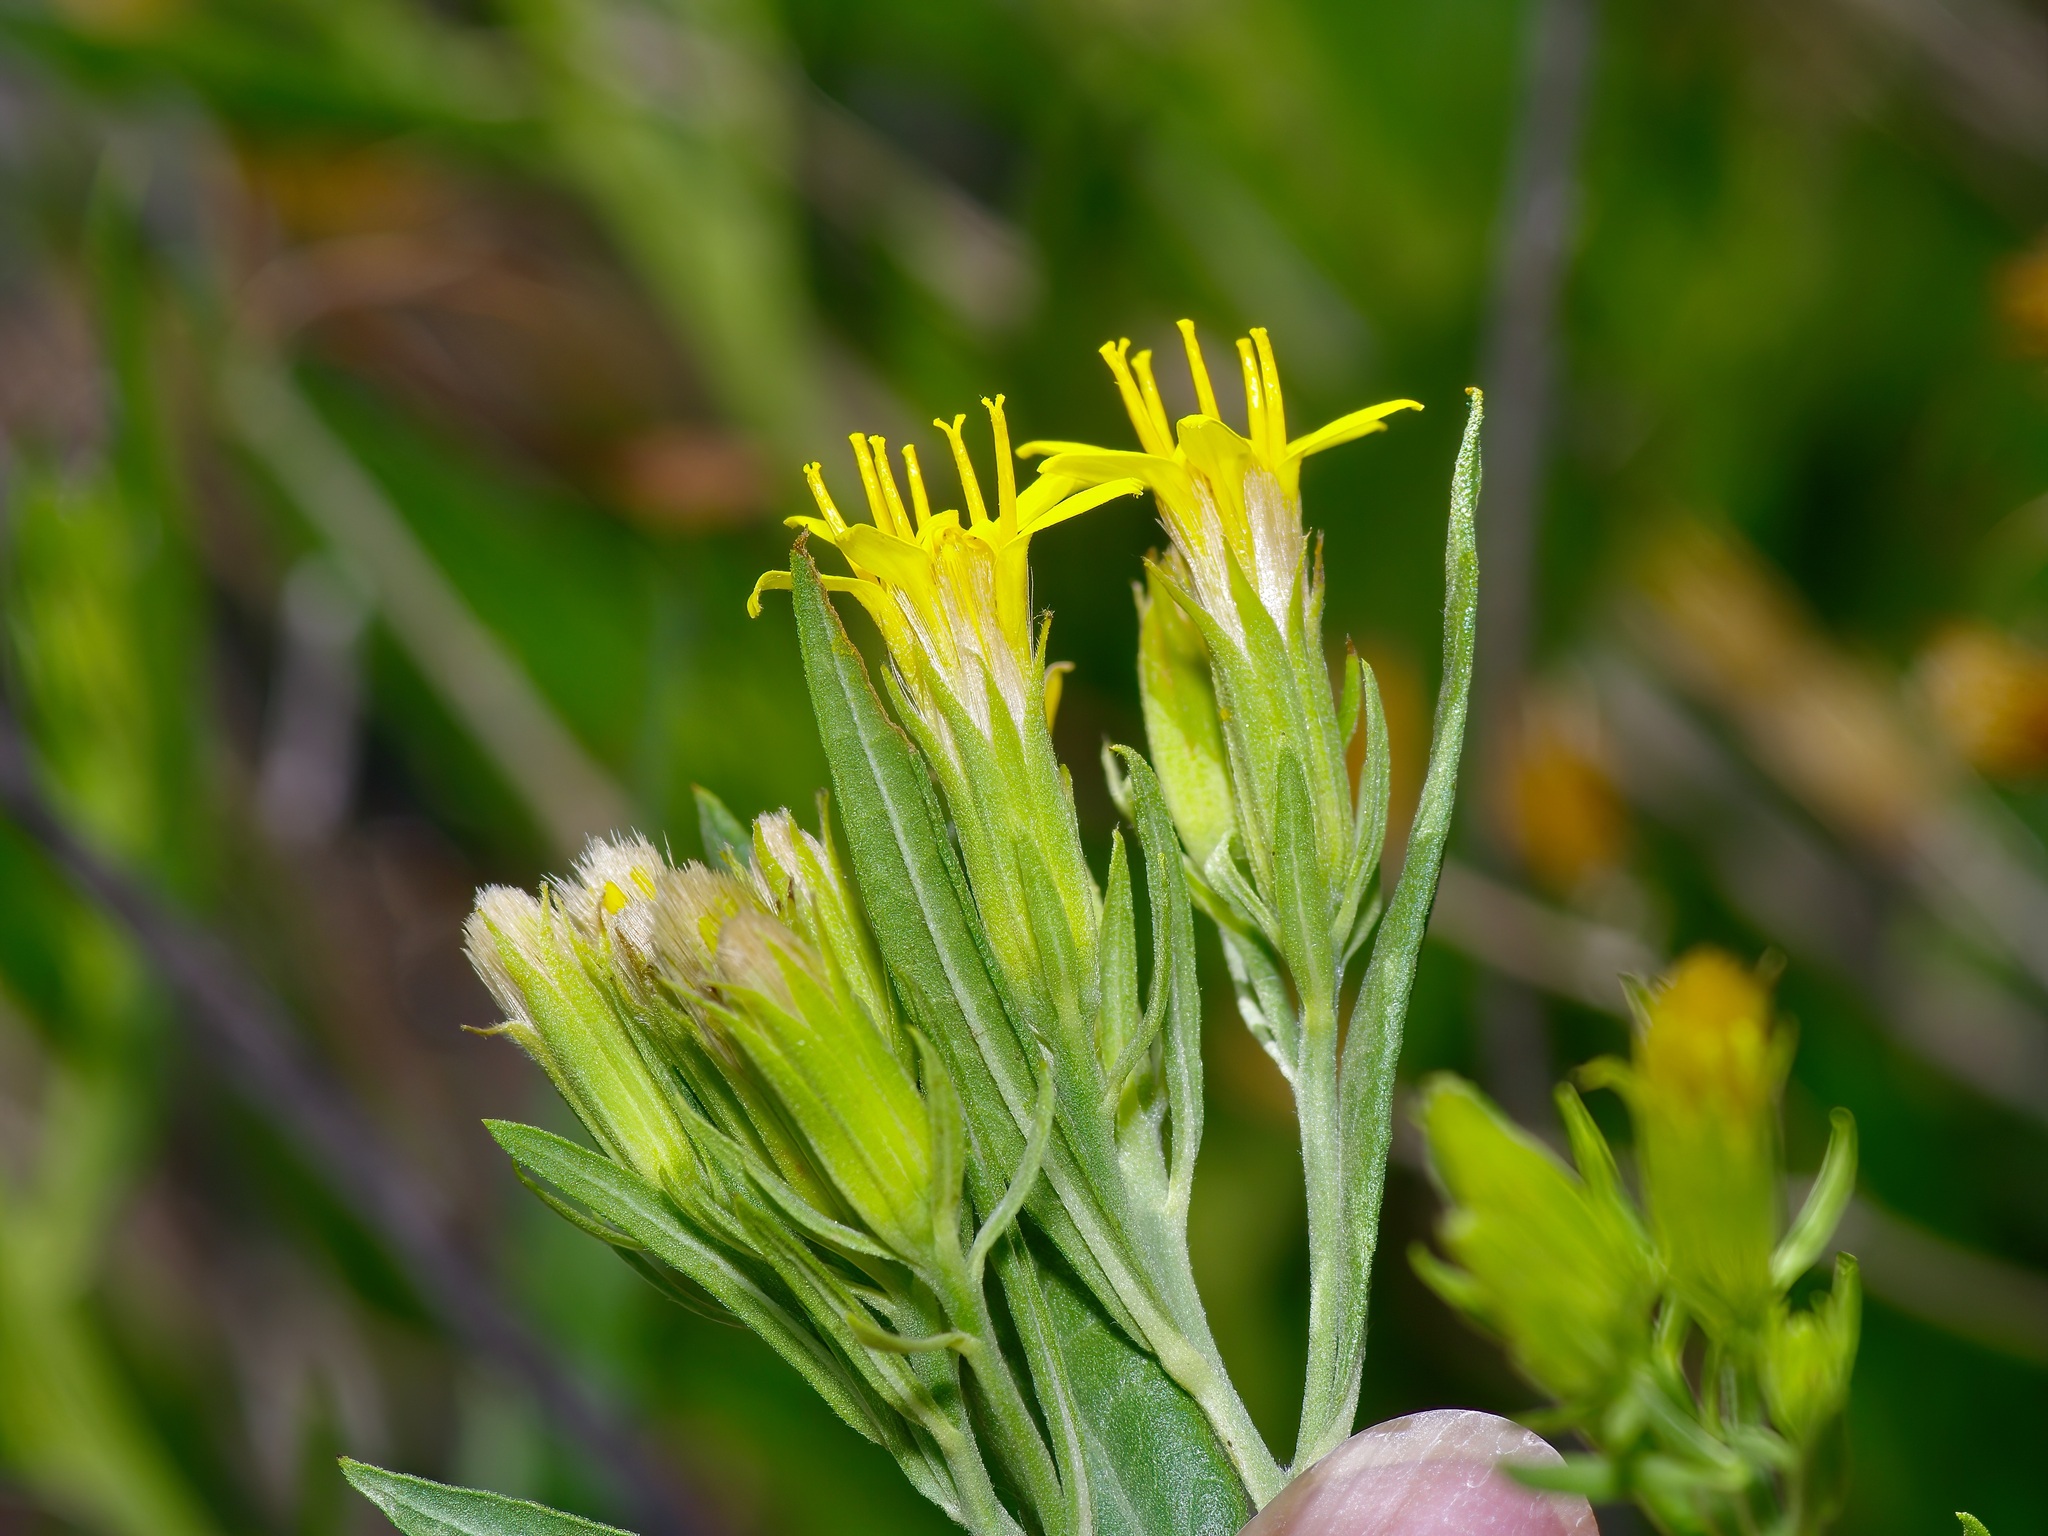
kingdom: Plantae
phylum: Tracheophyta
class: Magnoliopsida
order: Asterales
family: Asteraceae
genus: Trixis
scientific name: Trixis californica
